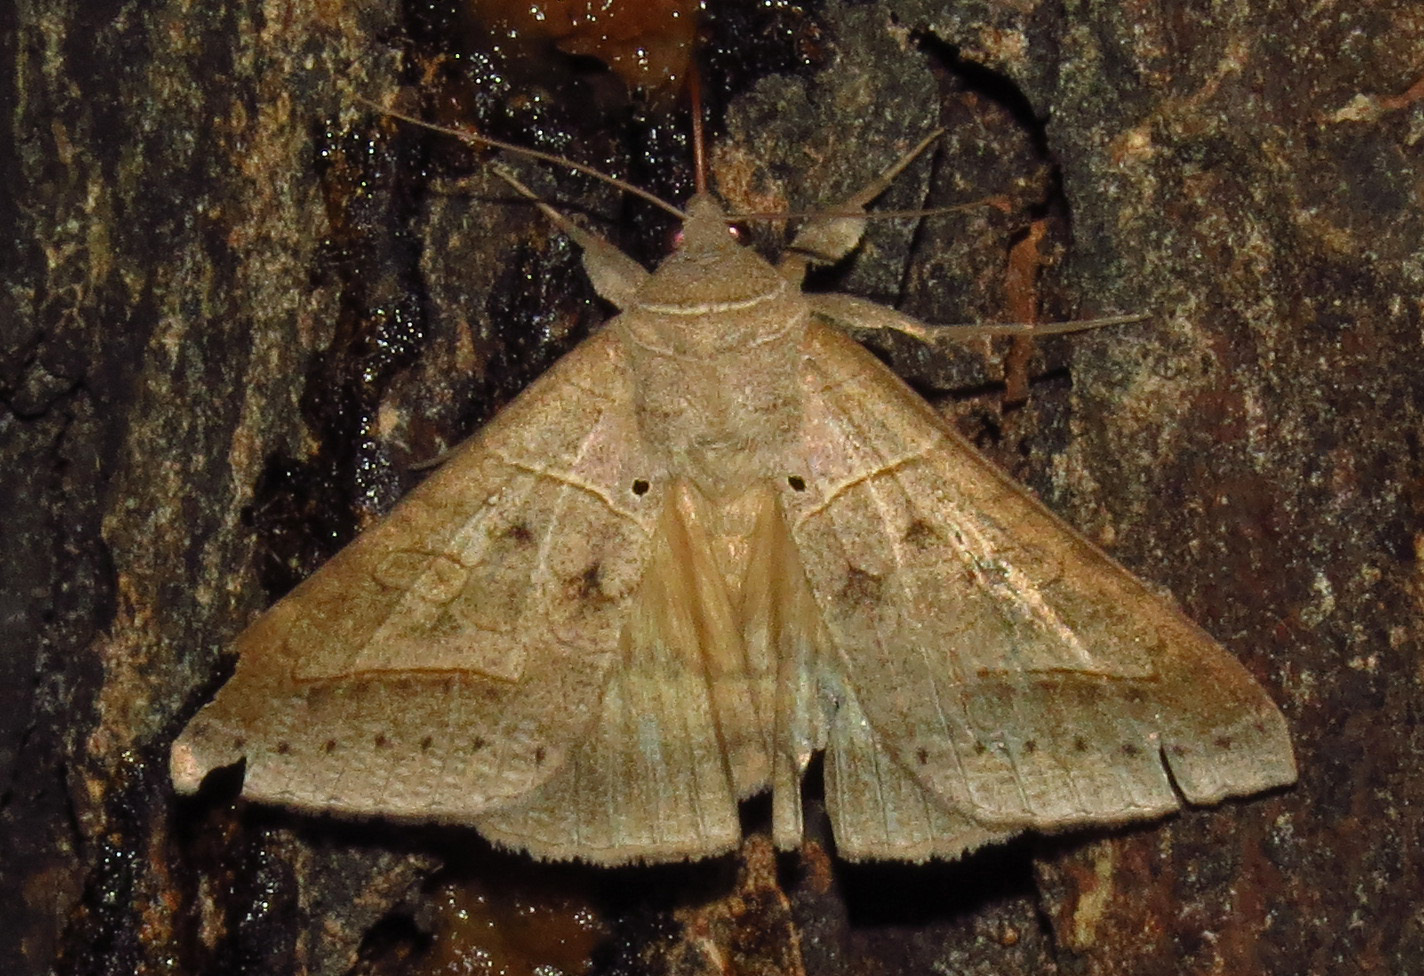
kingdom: Animalia
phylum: Arthropoda
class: Insecta
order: Lepidoptera
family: Erebidae
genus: Mocis
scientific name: Mocis marcida
